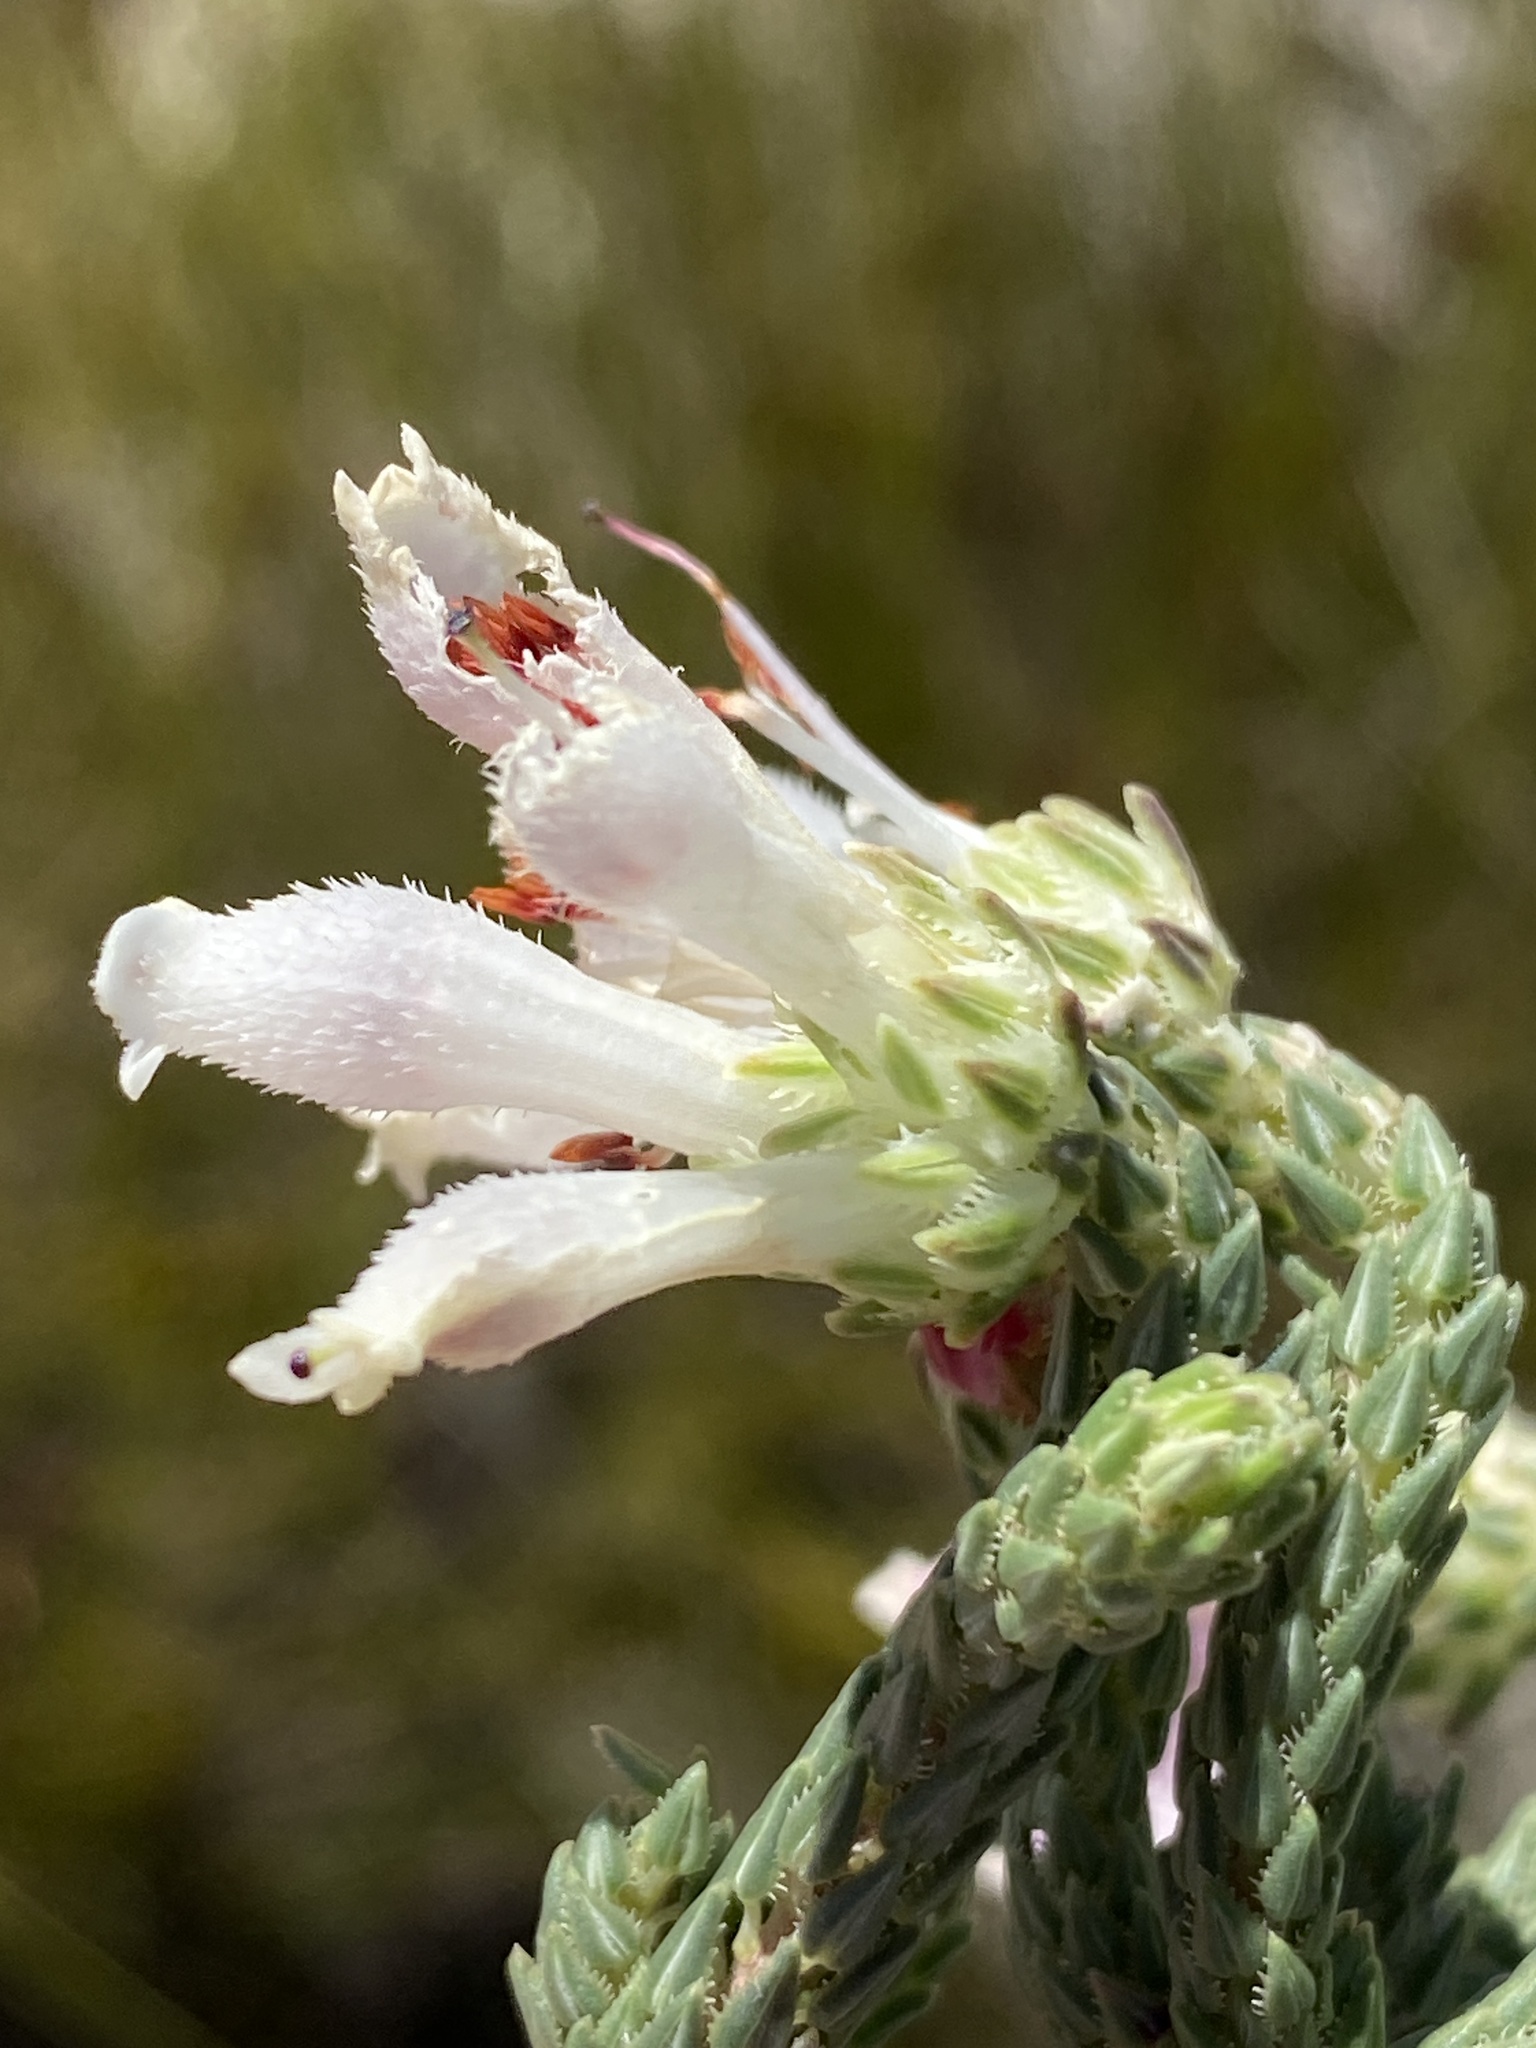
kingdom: Plantae
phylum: Tracheophyta
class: Magnoliopsida
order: Ericales
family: Ericaceae
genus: Erica
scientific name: Erica pectinifolia
